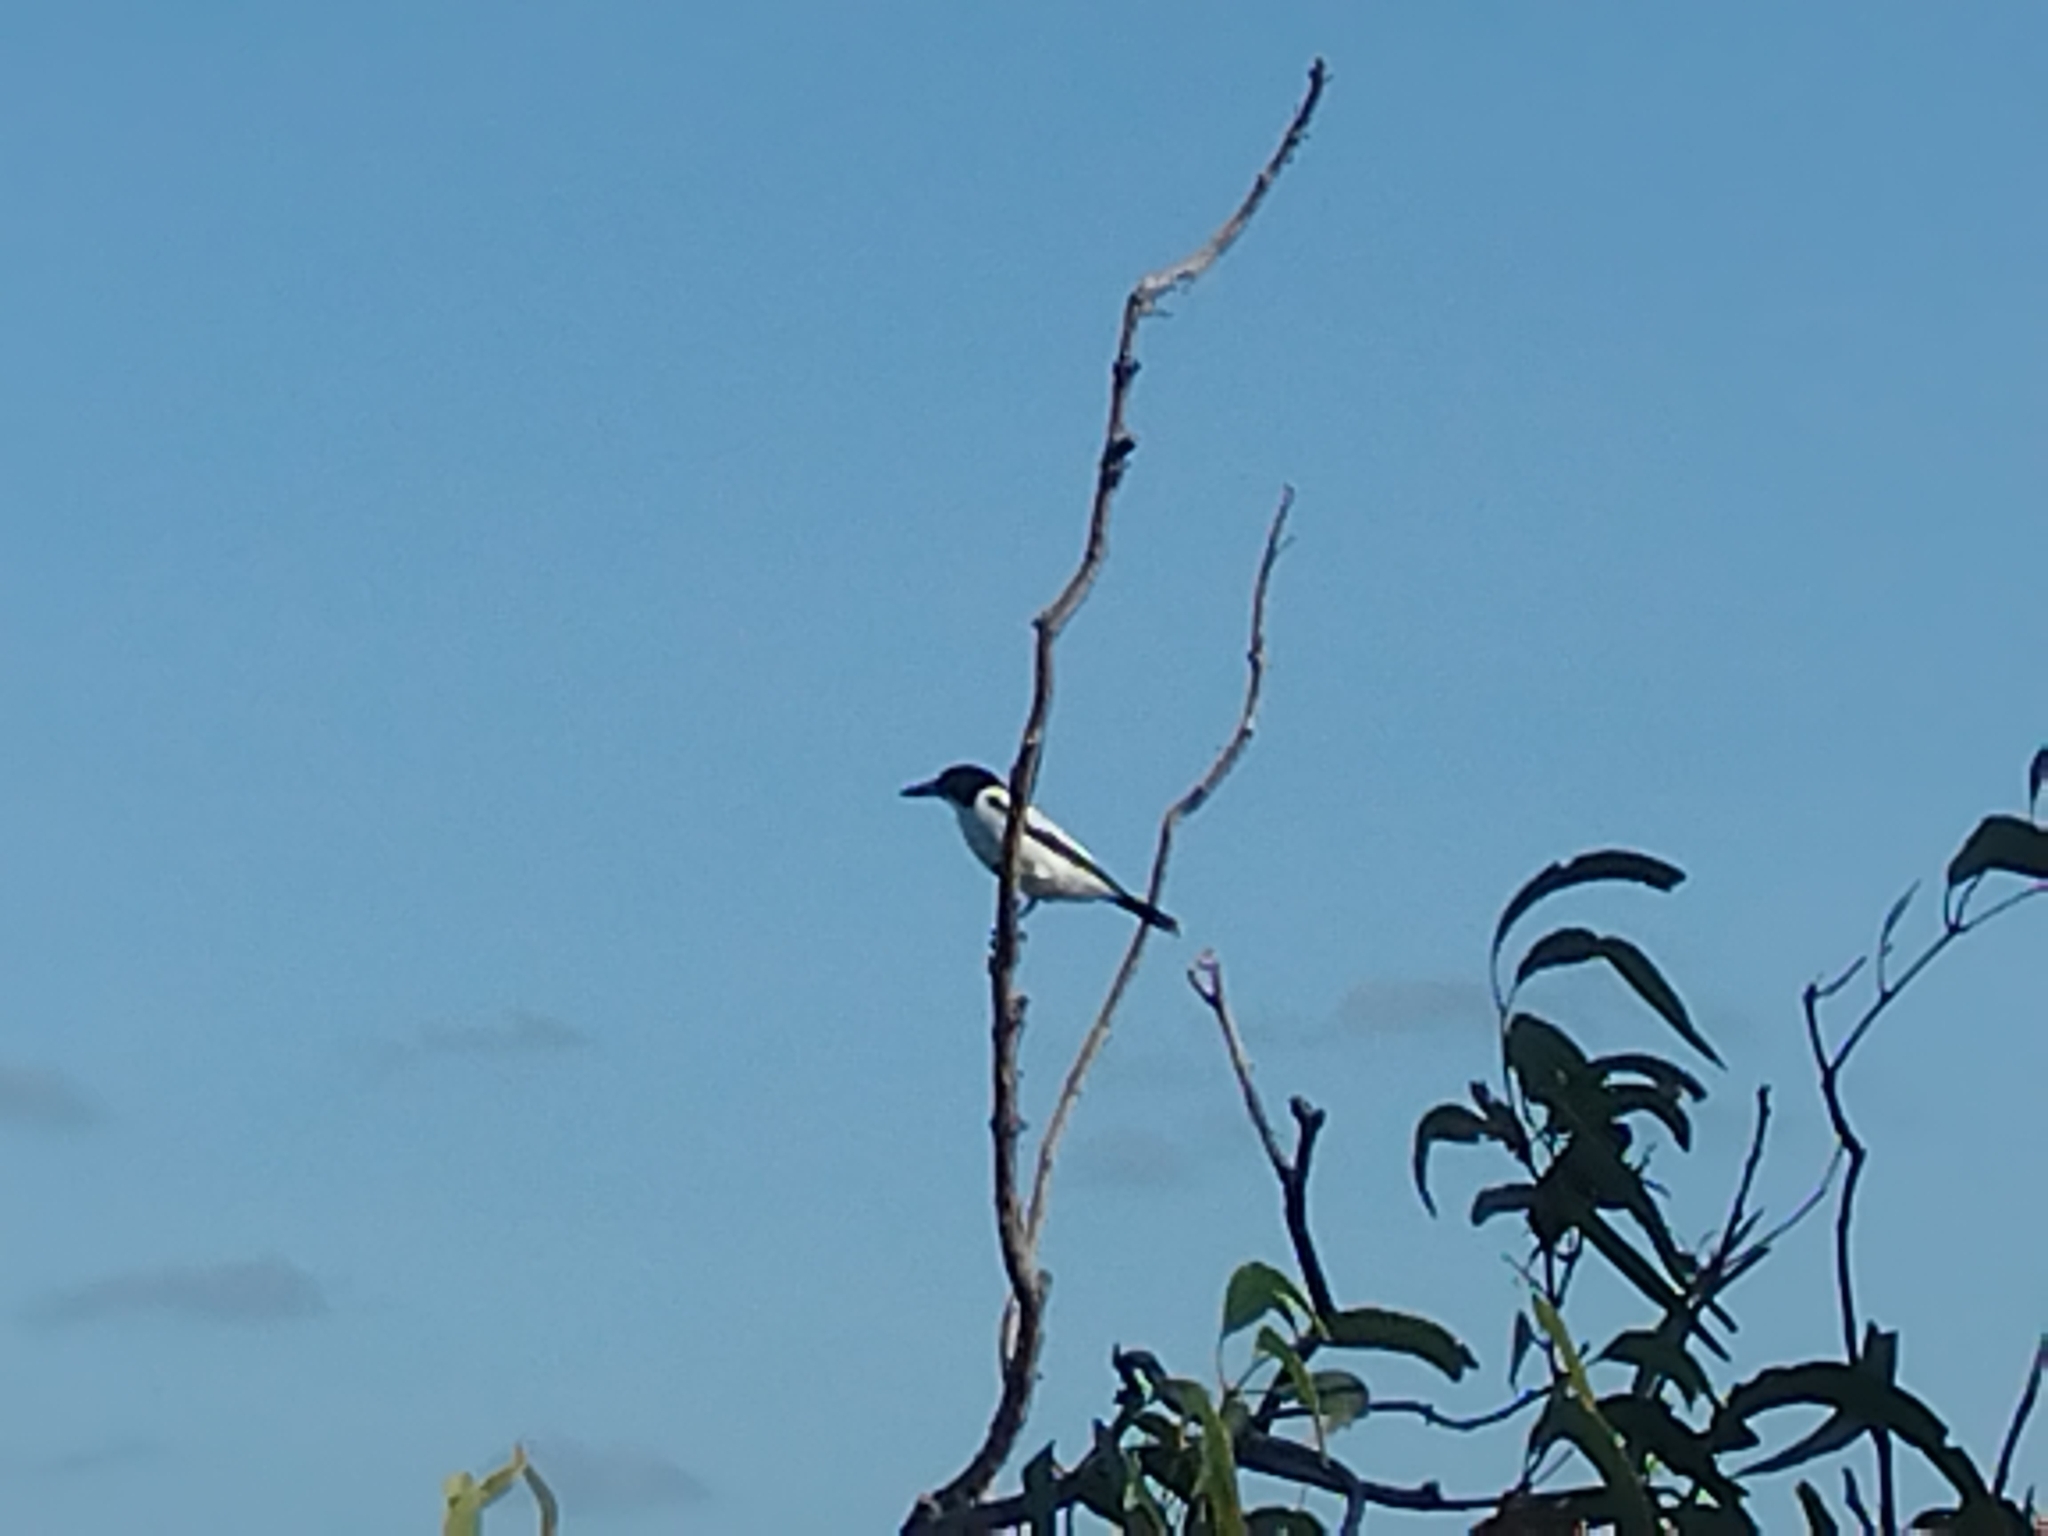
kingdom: Animalia
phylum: Chordata
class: Aves
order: Passeriformes
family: Cracticidae
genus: Cracticus
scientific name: Cracticus torquatus
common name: Grey butcherbird
